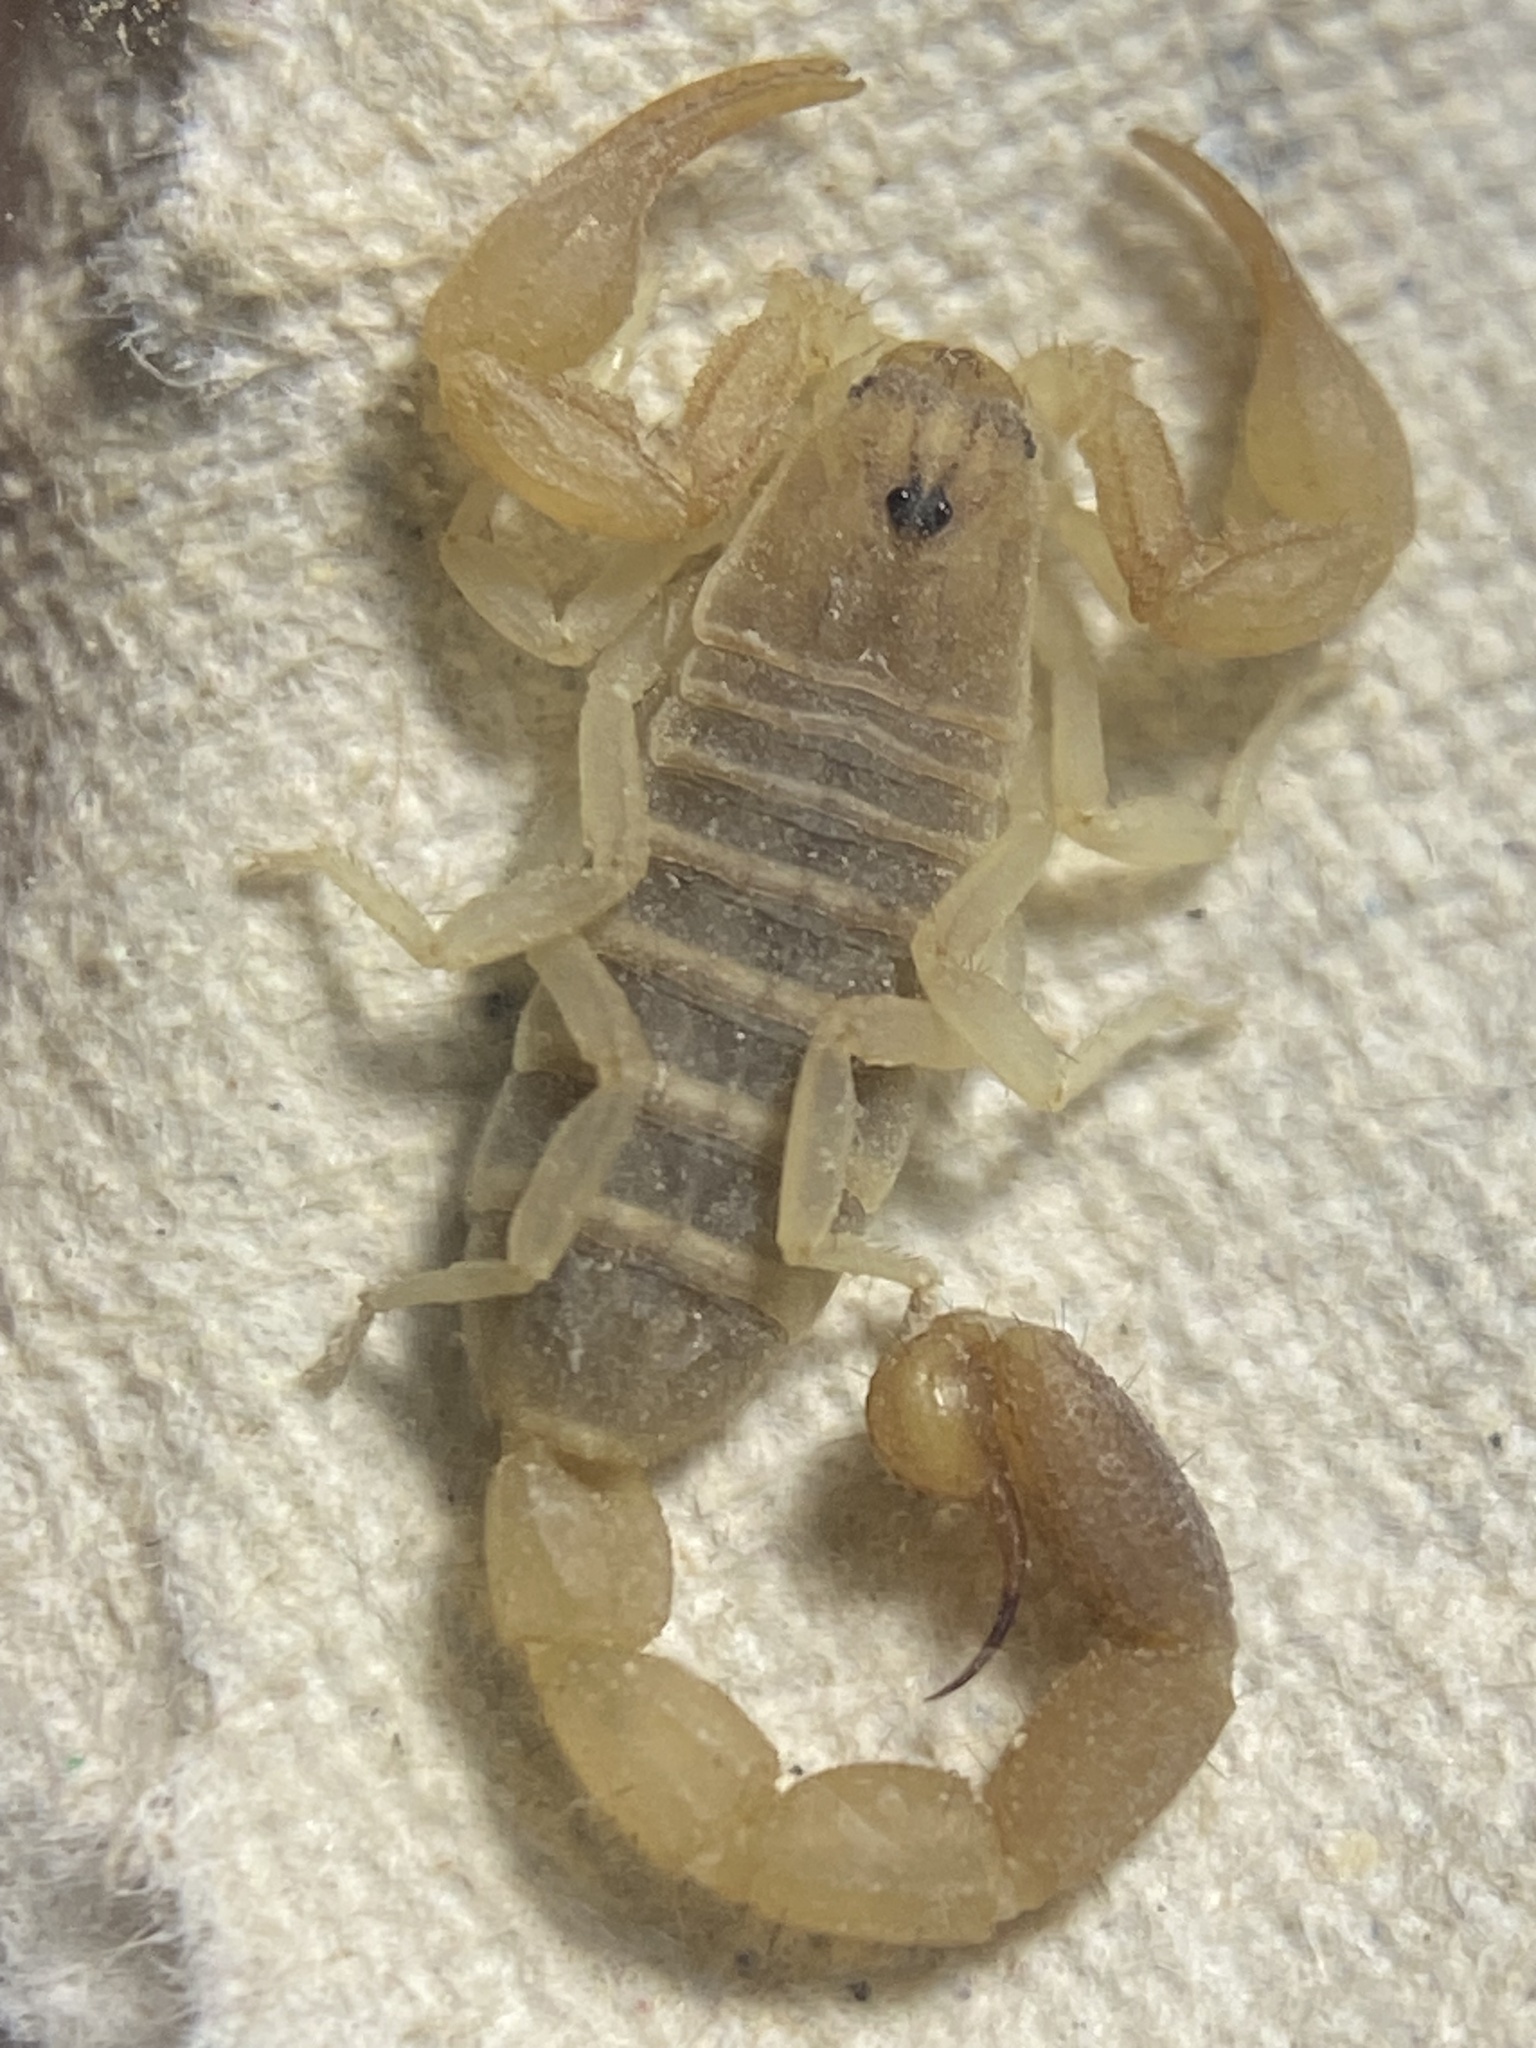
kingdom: Animalia
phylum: Arthropoda
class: Arachnida
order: Scorpiones
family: Buthidae
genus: Razianus
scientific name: Razianus zarudnyi
